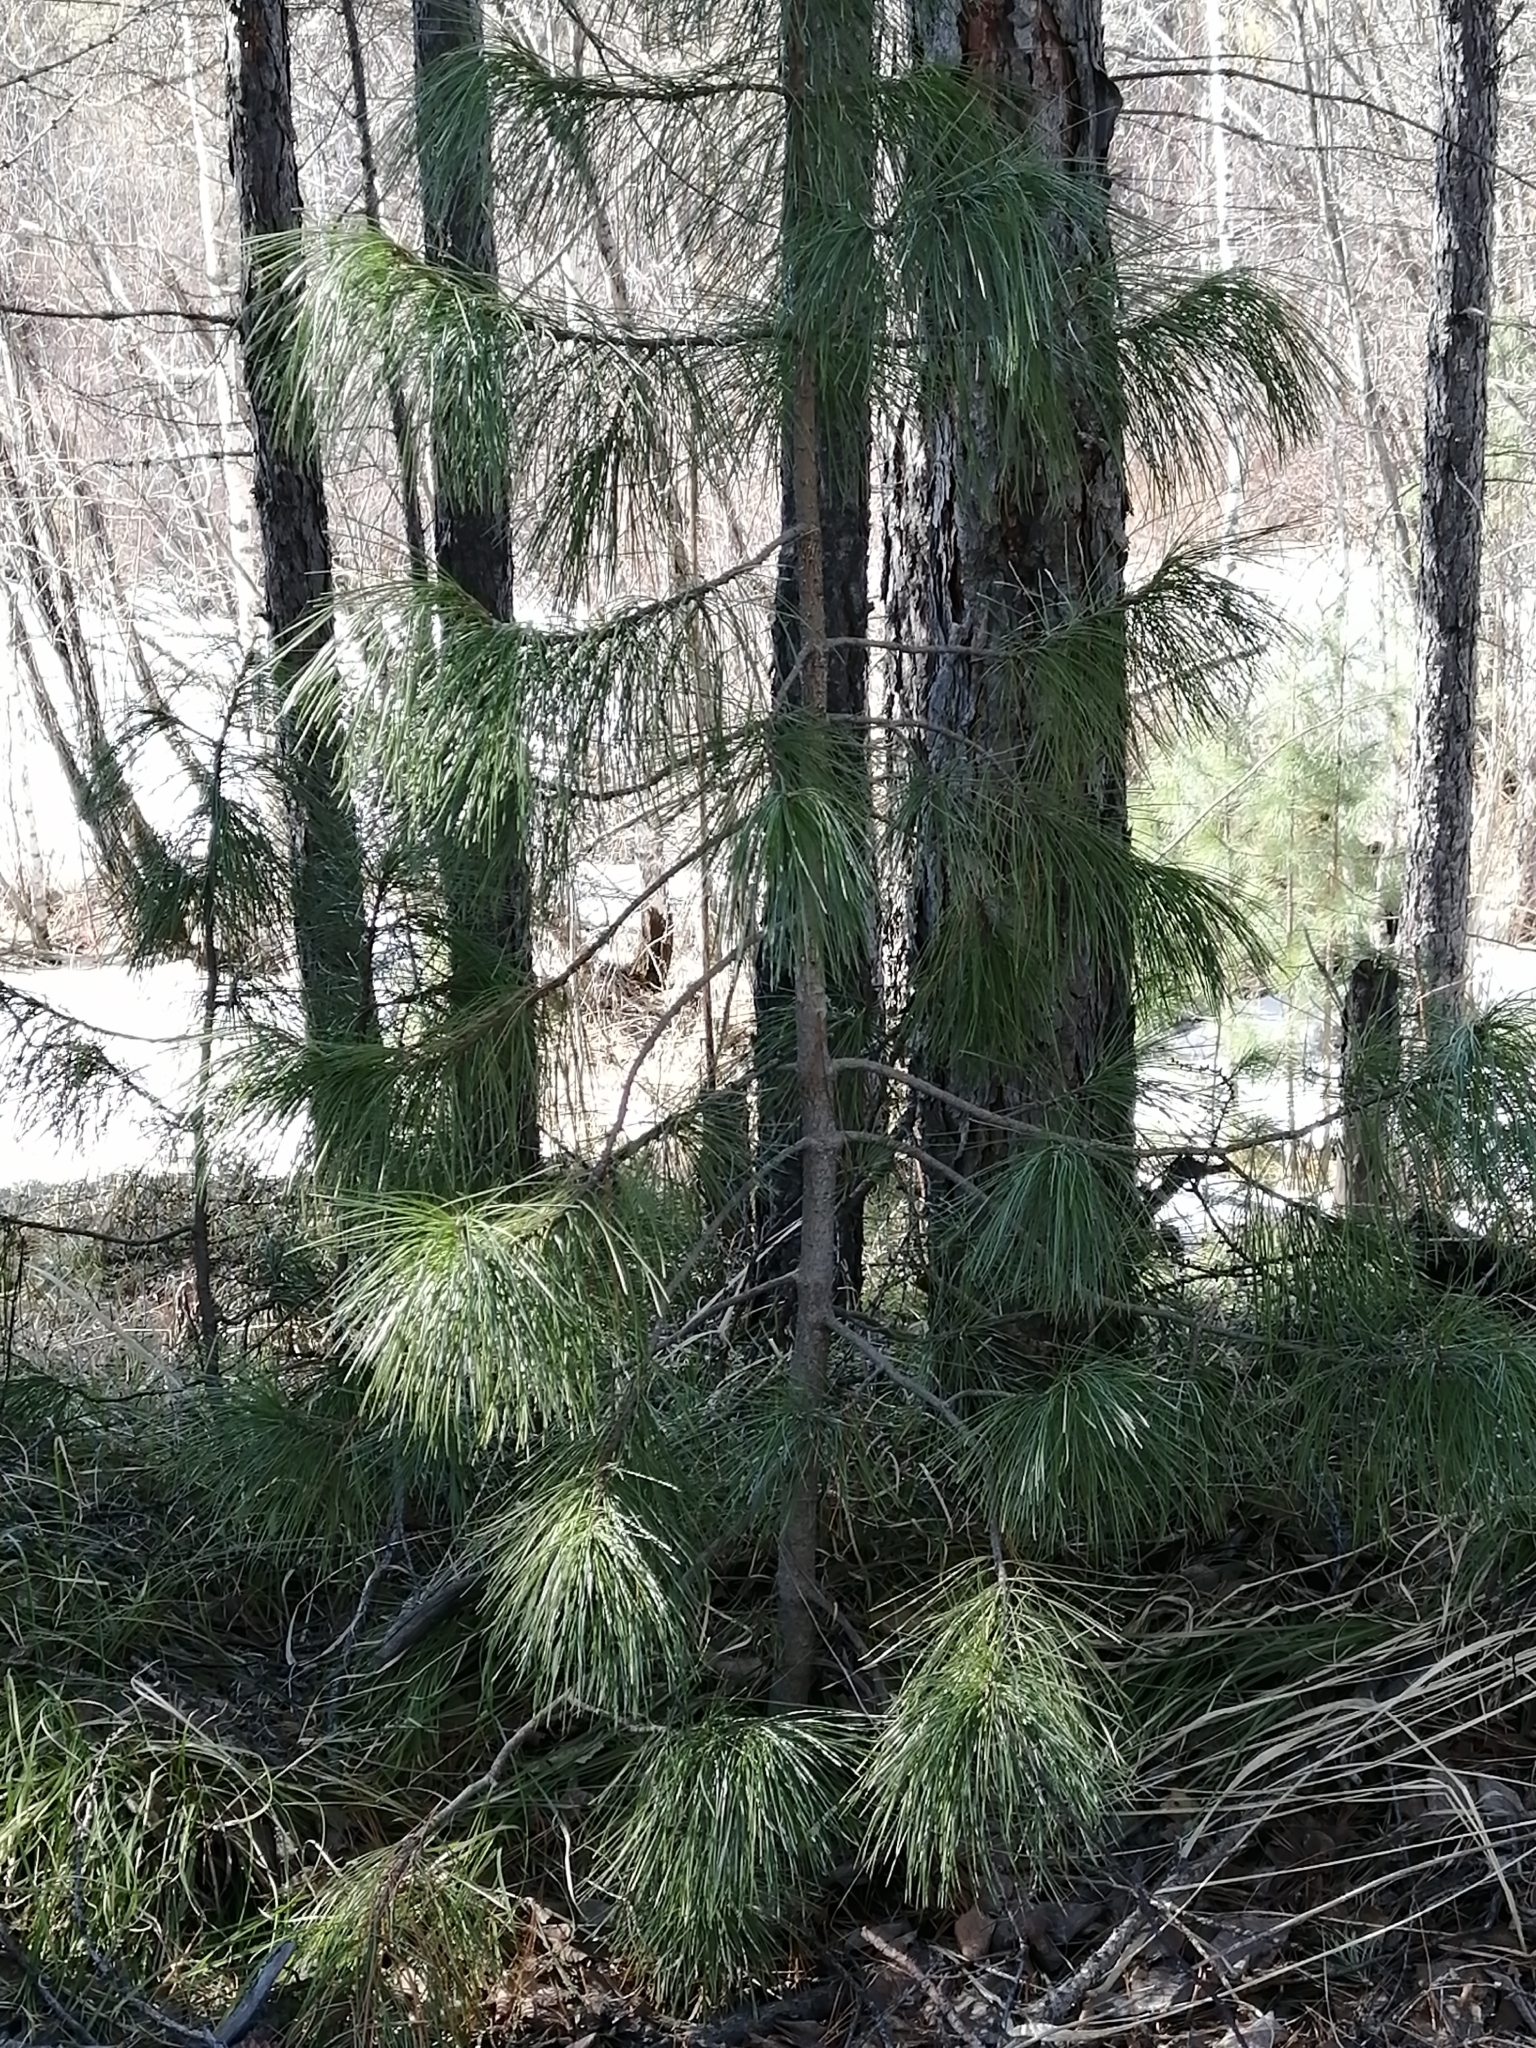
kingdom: Plantae
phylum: Tracheophyta
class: Pinopsida
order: Pinales
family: Pinaceae
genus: Pinus
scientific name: Pinus sibirica
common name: Siberian pine
